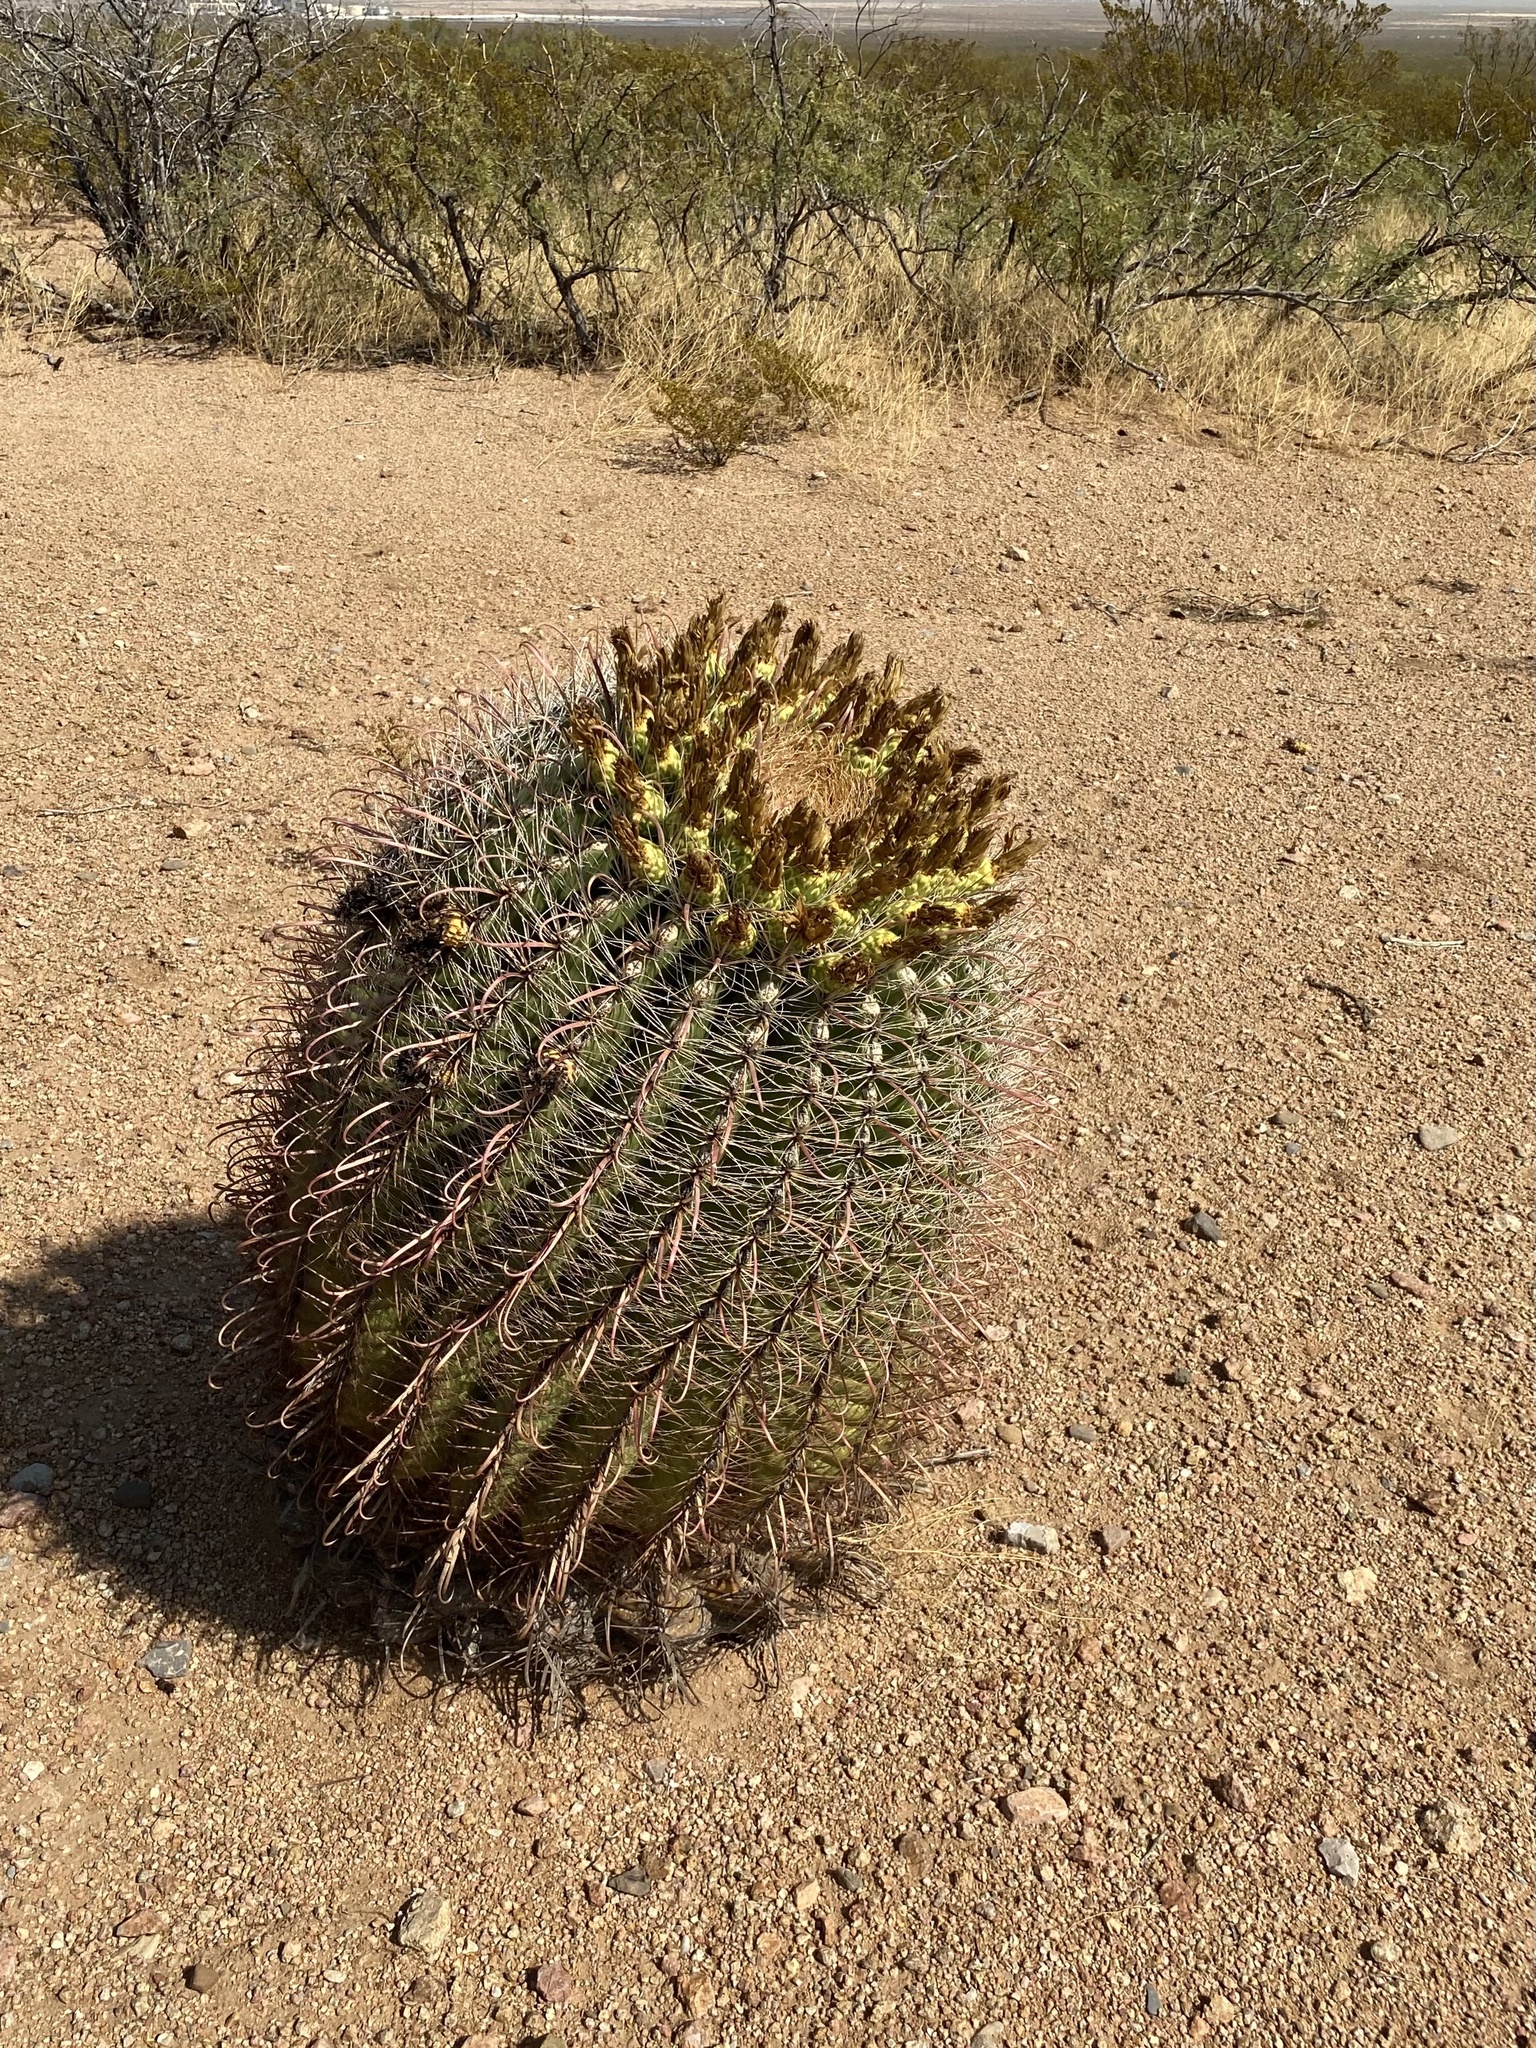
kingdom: Plantae
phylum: Tracheophyta
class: Magnoliopsida
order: Caryophyllales
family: Cactaceae
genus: Ferocactus
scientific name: Ferocactus wislizeni
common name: Candy barrel cactus
